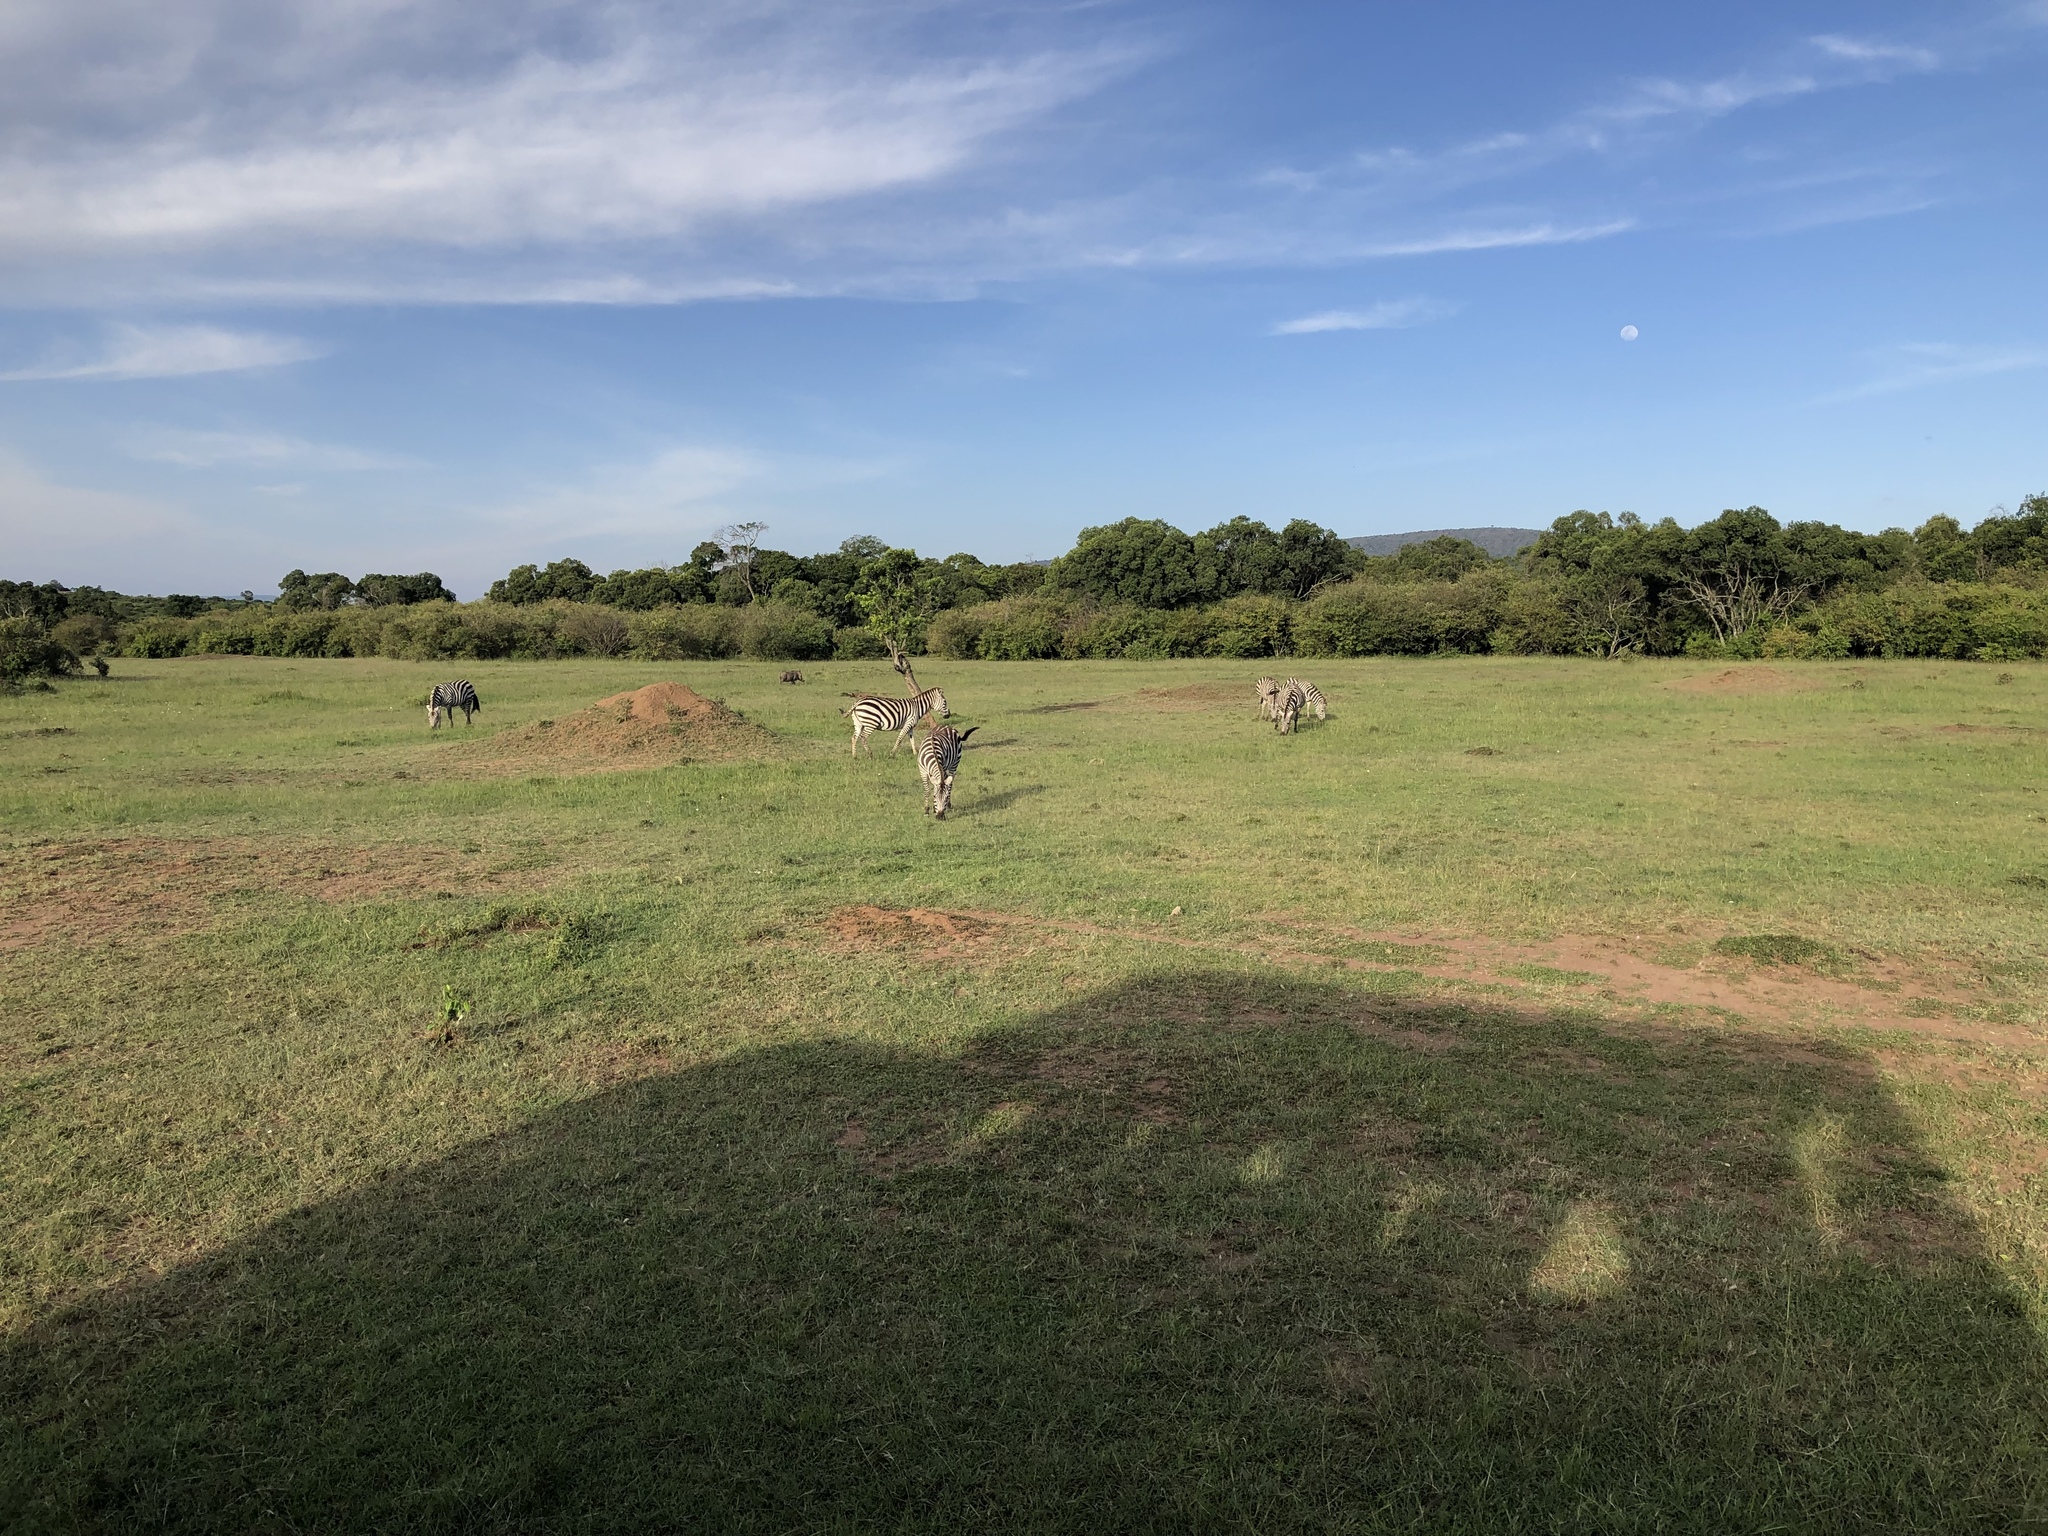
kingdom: Animalia
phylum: Chordata
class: Mammalia
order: Perissodactyla
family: Equidae
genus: Equus
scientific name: Equus quagga
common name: Plains zebra
